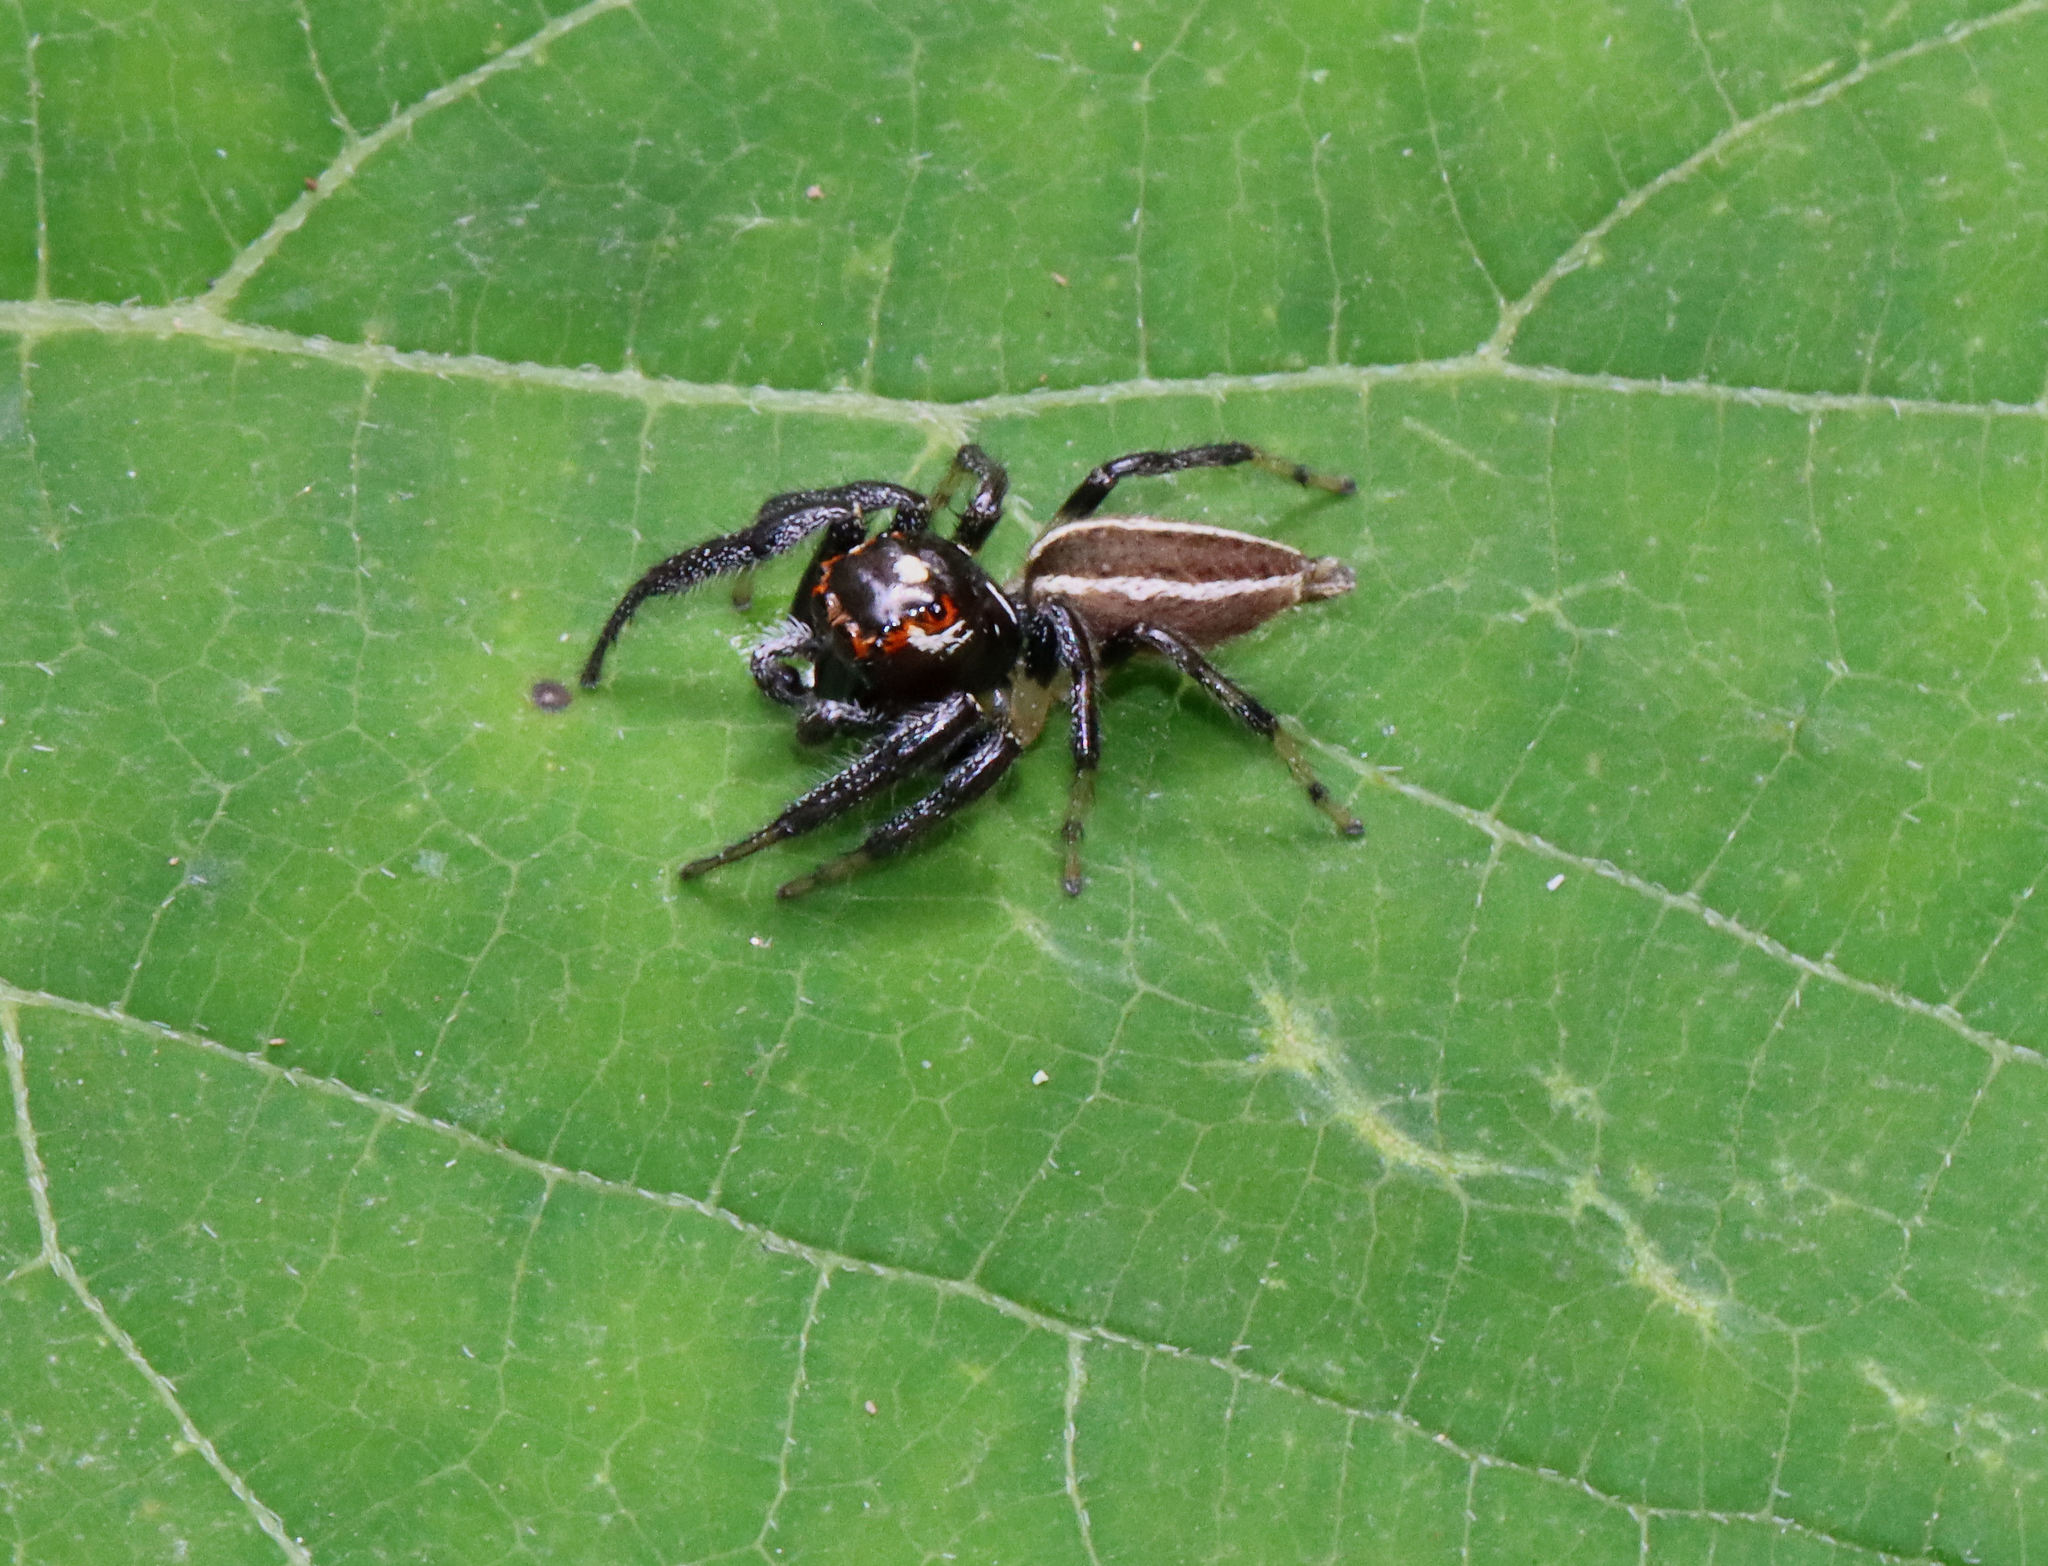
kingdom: Animalia
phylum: Arthropoda
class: Arachnida
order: Araneae
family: Salticidae
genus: Colonus
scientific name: Colonus sylvanus
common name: Jumping spiders
